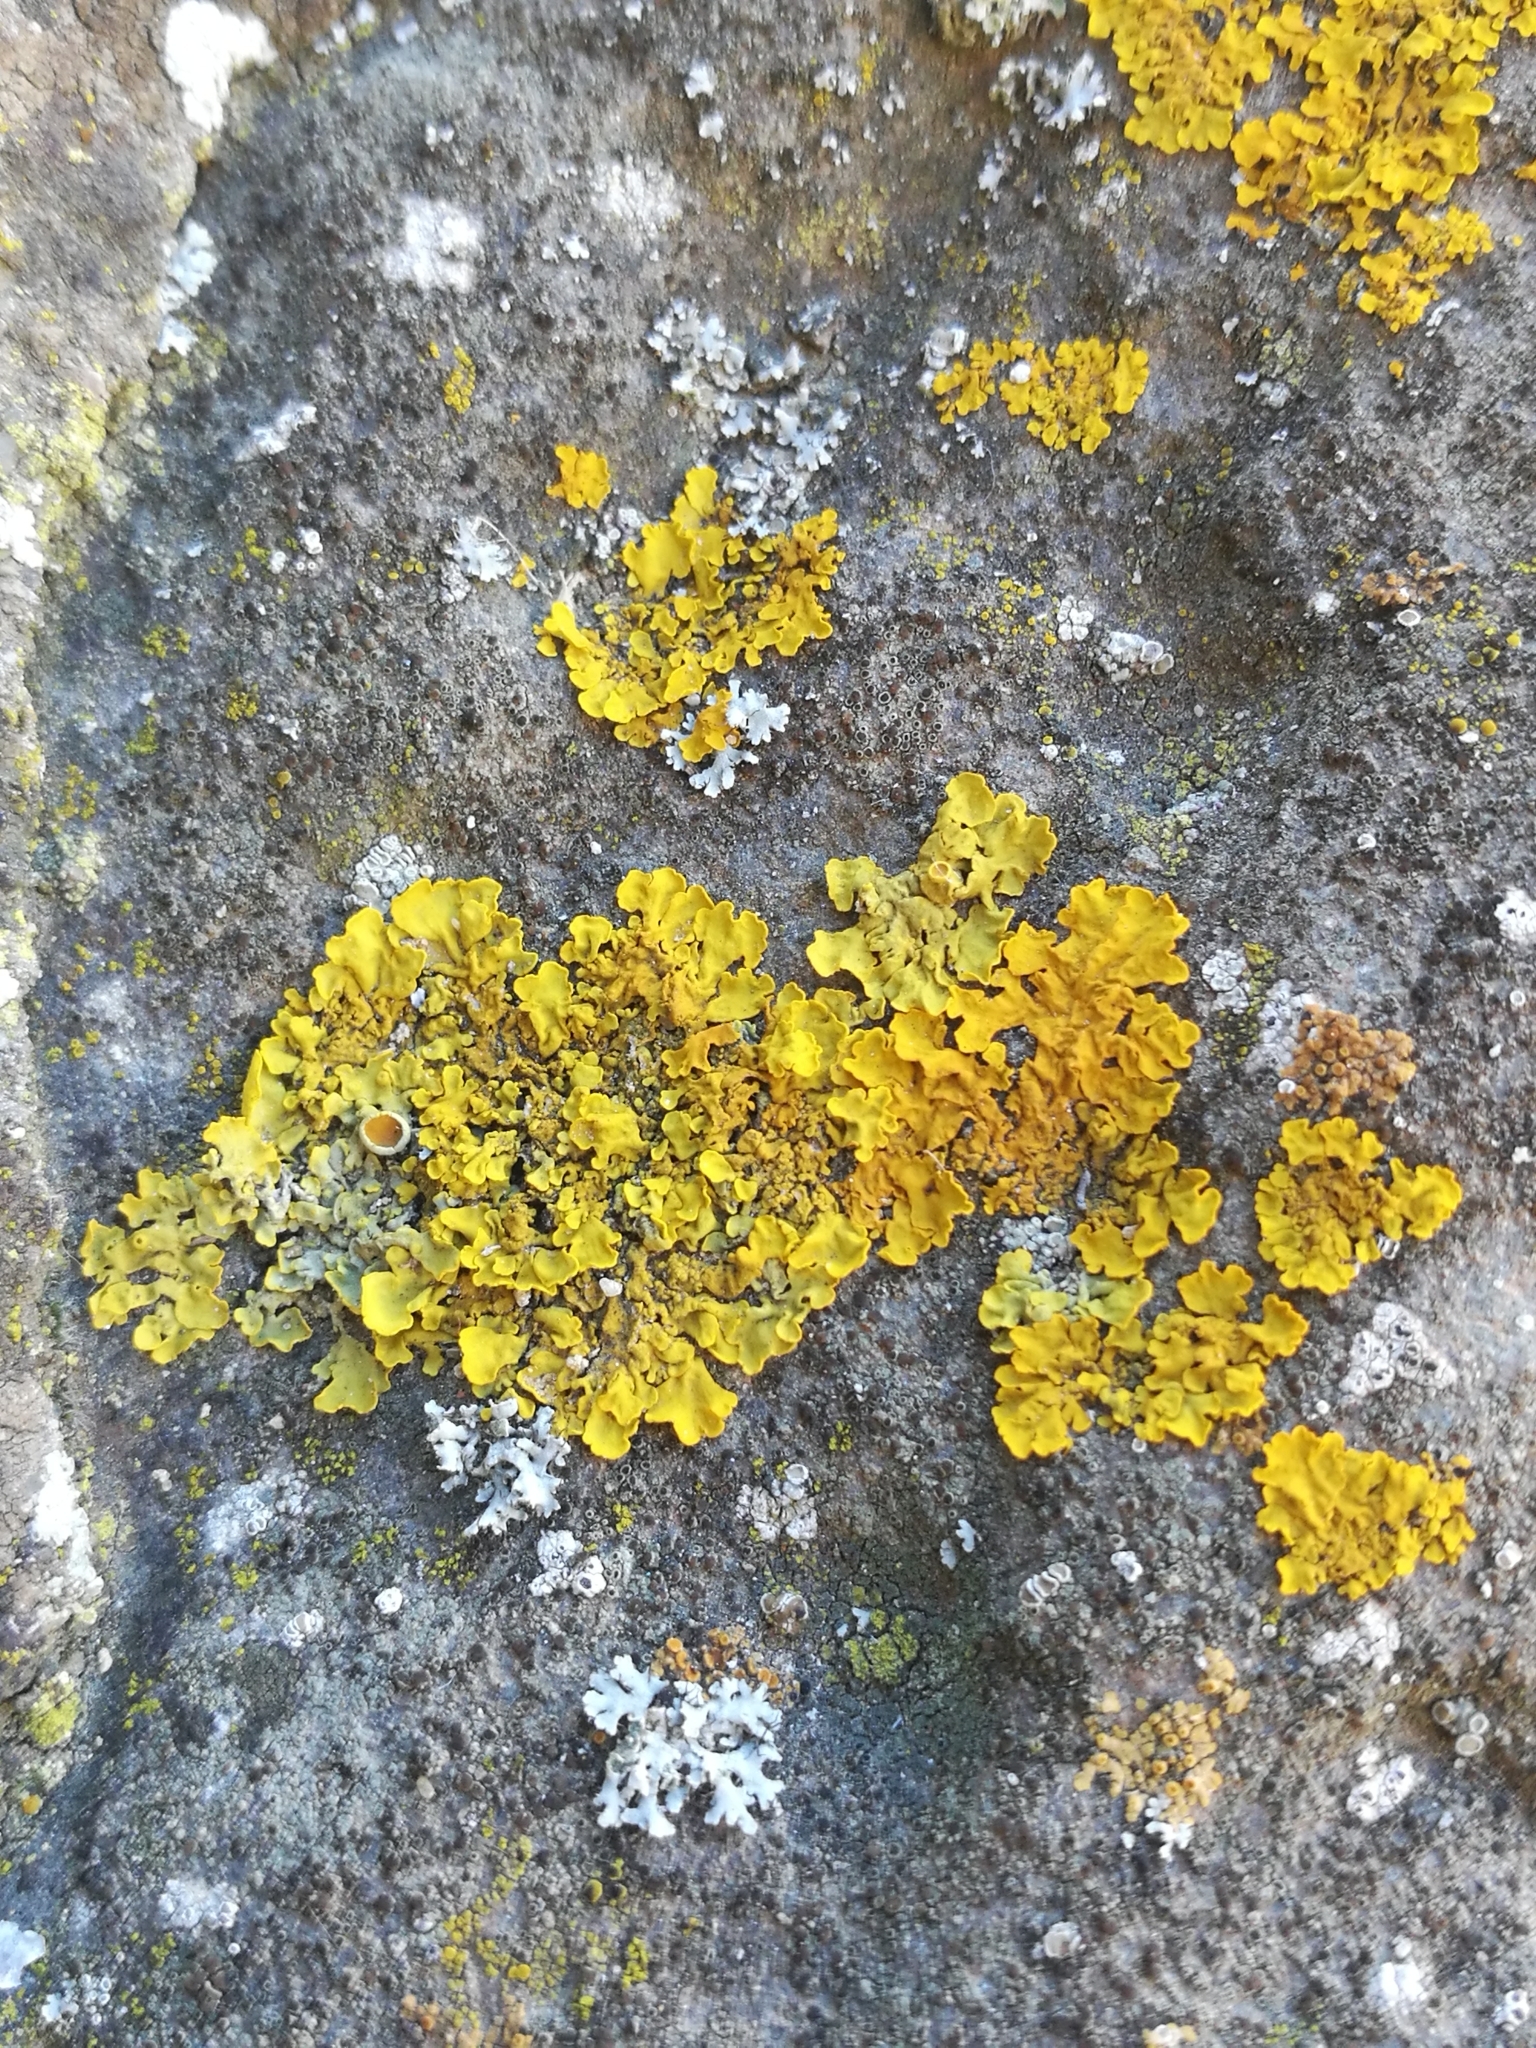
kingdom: Fungi
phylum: Ascomycota
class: Lecanoromycetes
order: Teloschistales
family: Teloschistaceae
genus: Xanthoria
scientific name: Xanthoria parietina
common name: Common orange lichen
